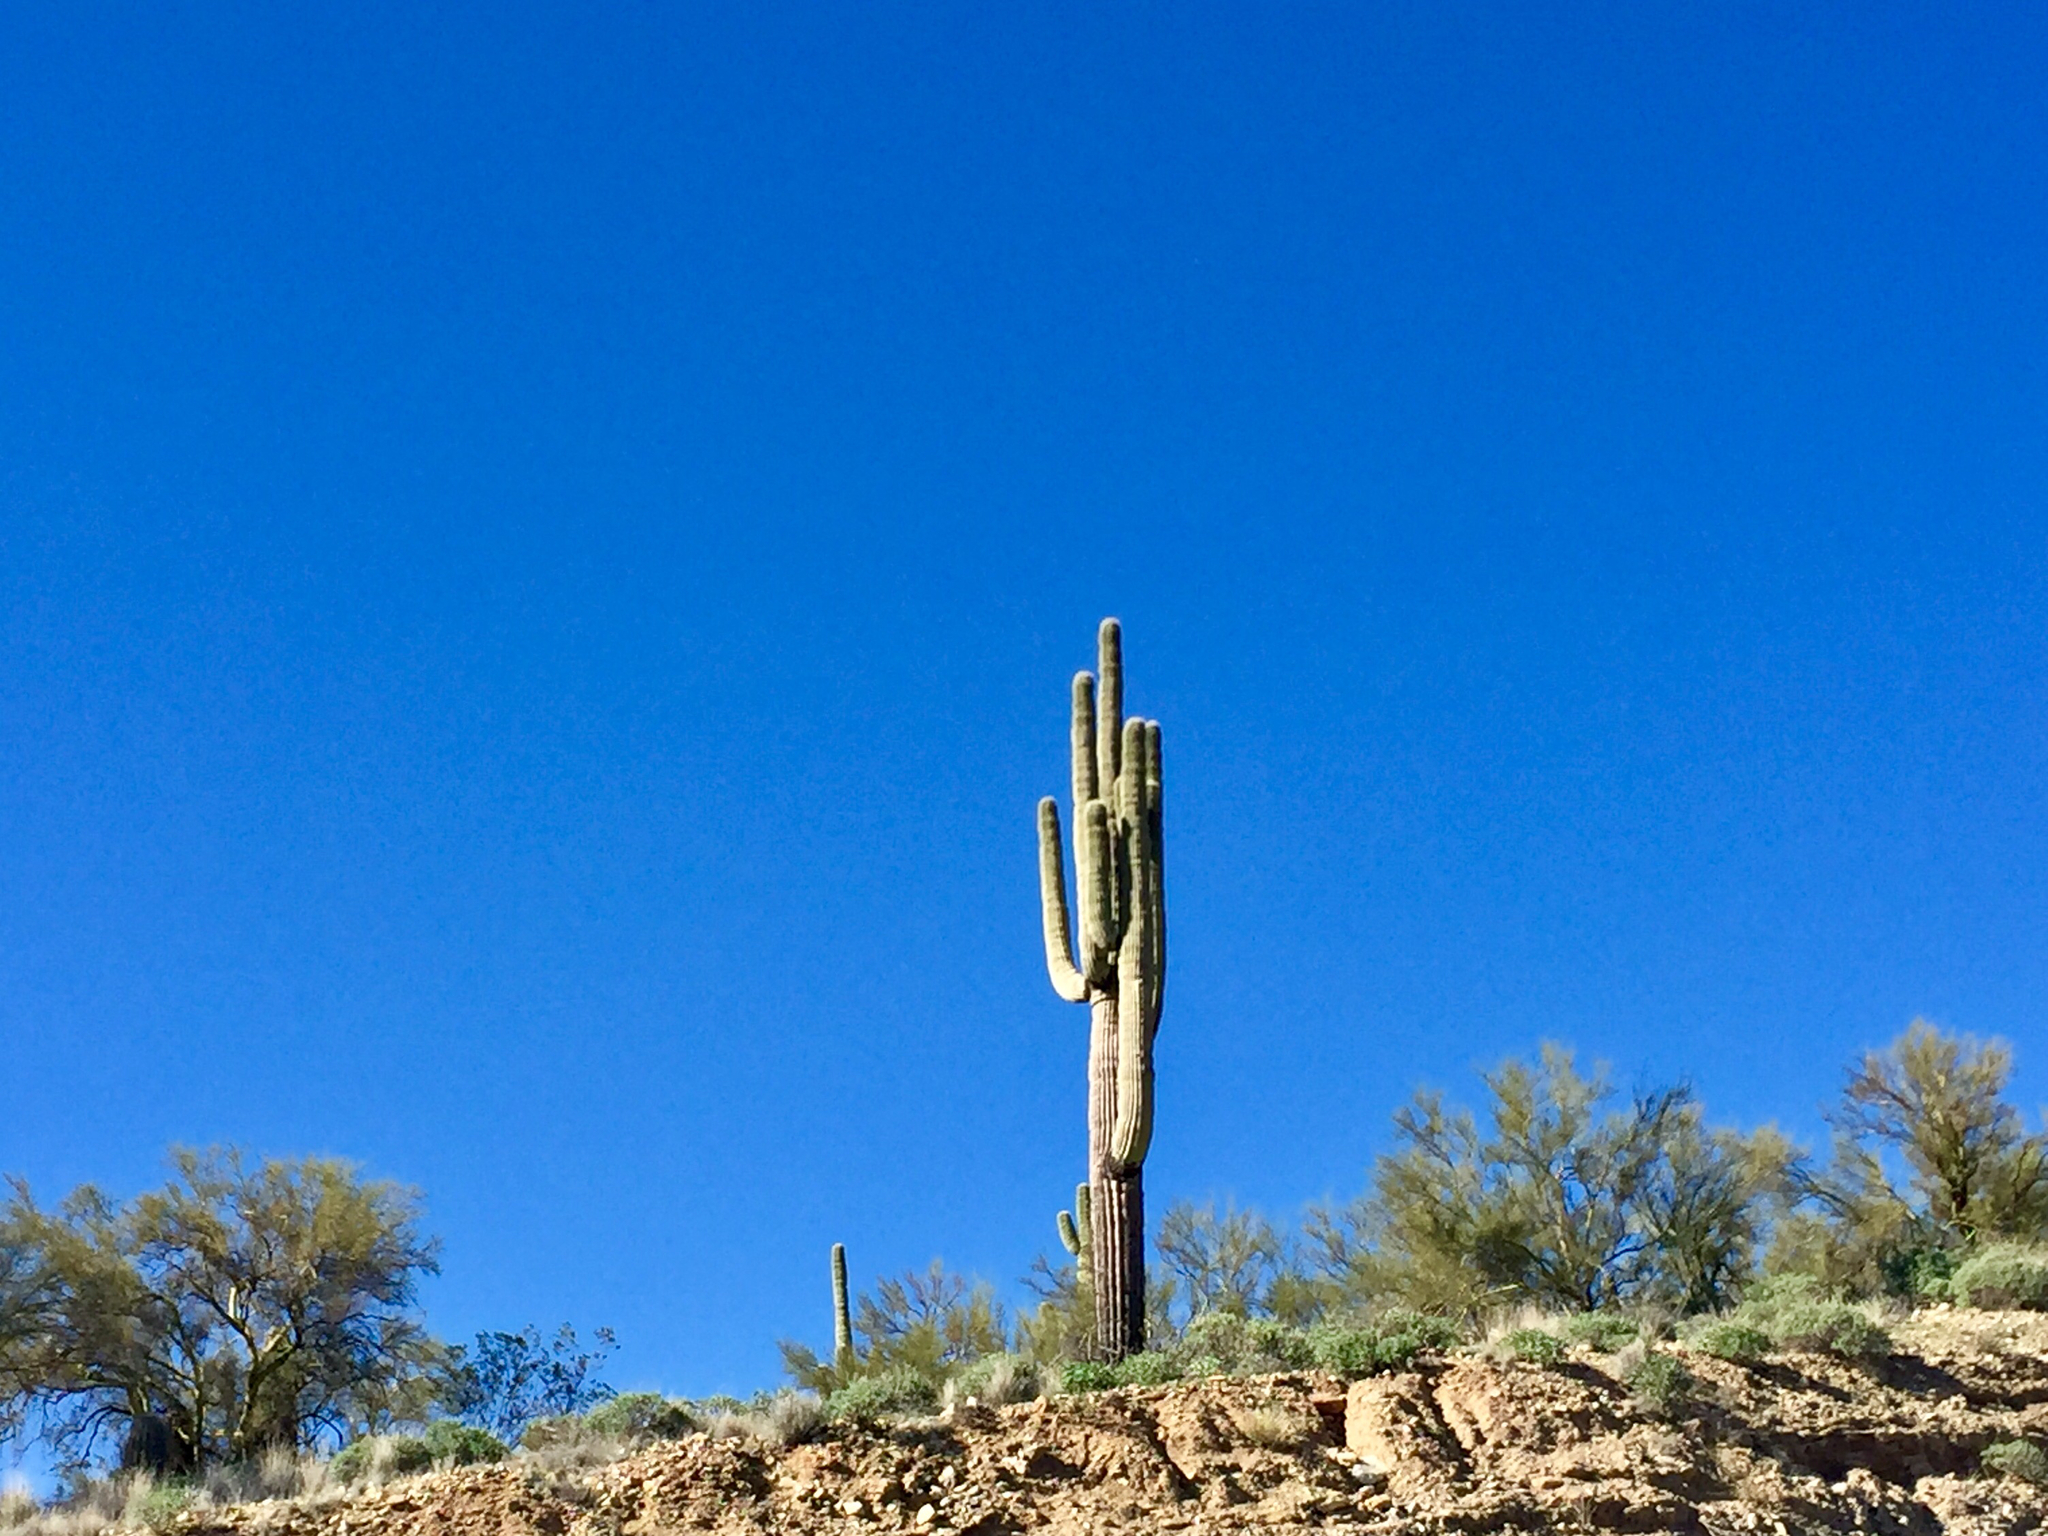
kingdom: Plantae
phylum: Tracheophyta
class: Magnoliopsida
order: Caryophyllales
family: Cactaceae
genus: Carnegiea
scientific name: Carnegiea gigantea
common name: Saguaro
